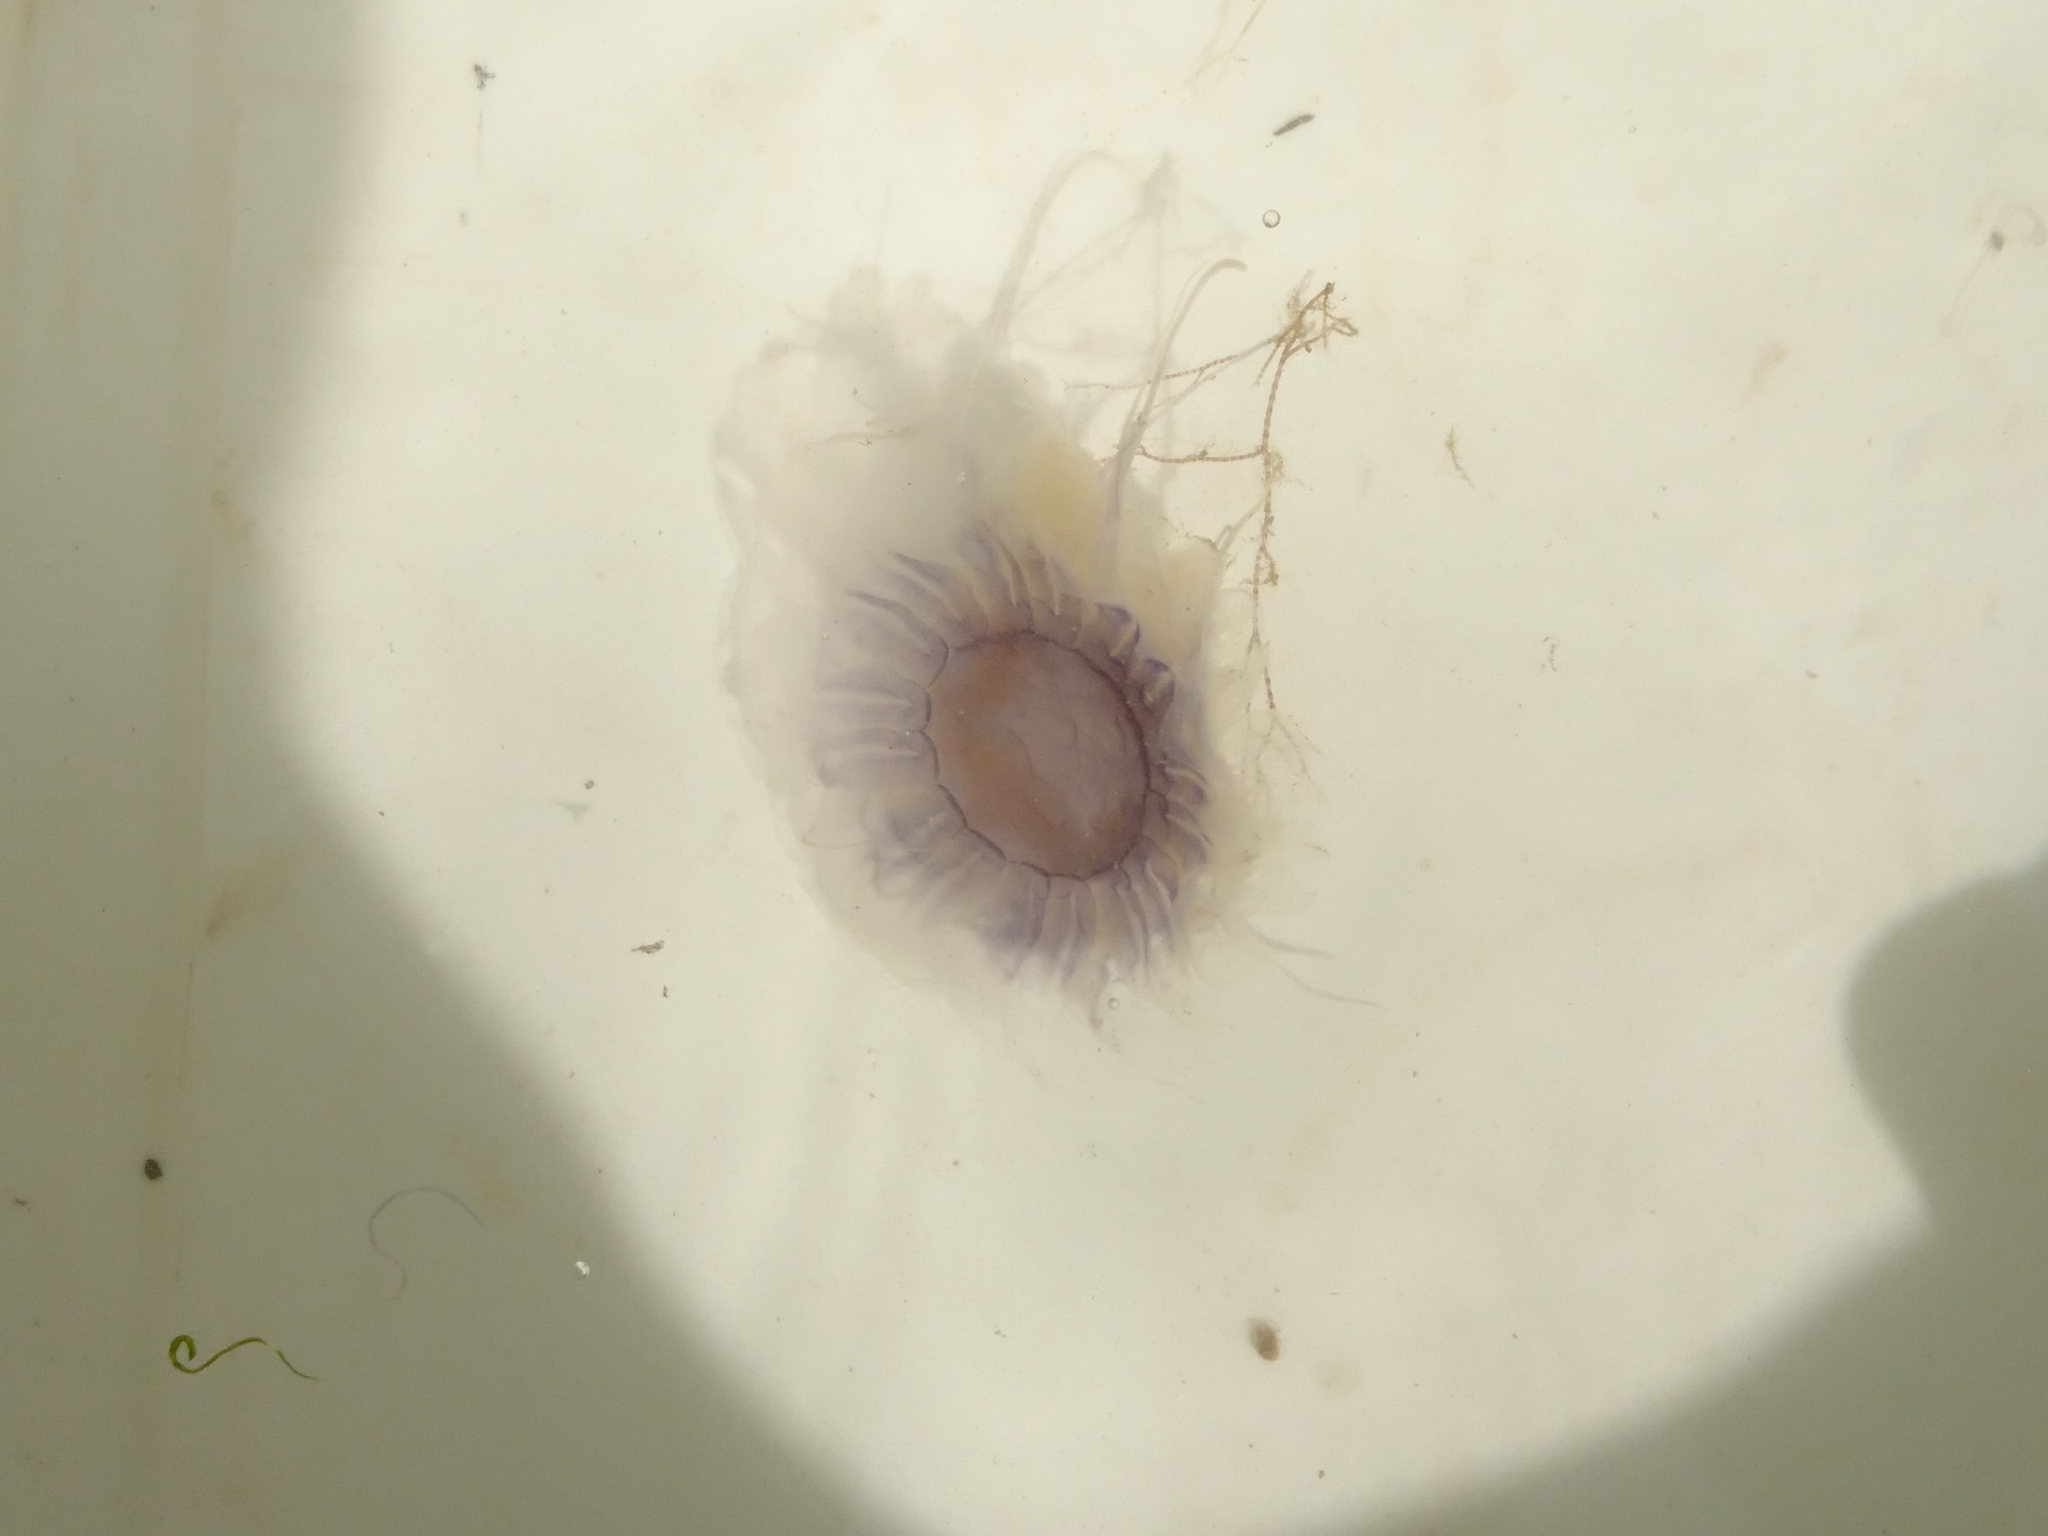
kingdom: Animalia
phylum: Cnidaria
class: Scyphozoa
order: Semaeostomeae
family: Cyaneidae
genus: Cyanea
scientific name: Cyanea lamarckii
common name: Blue jellyfish
